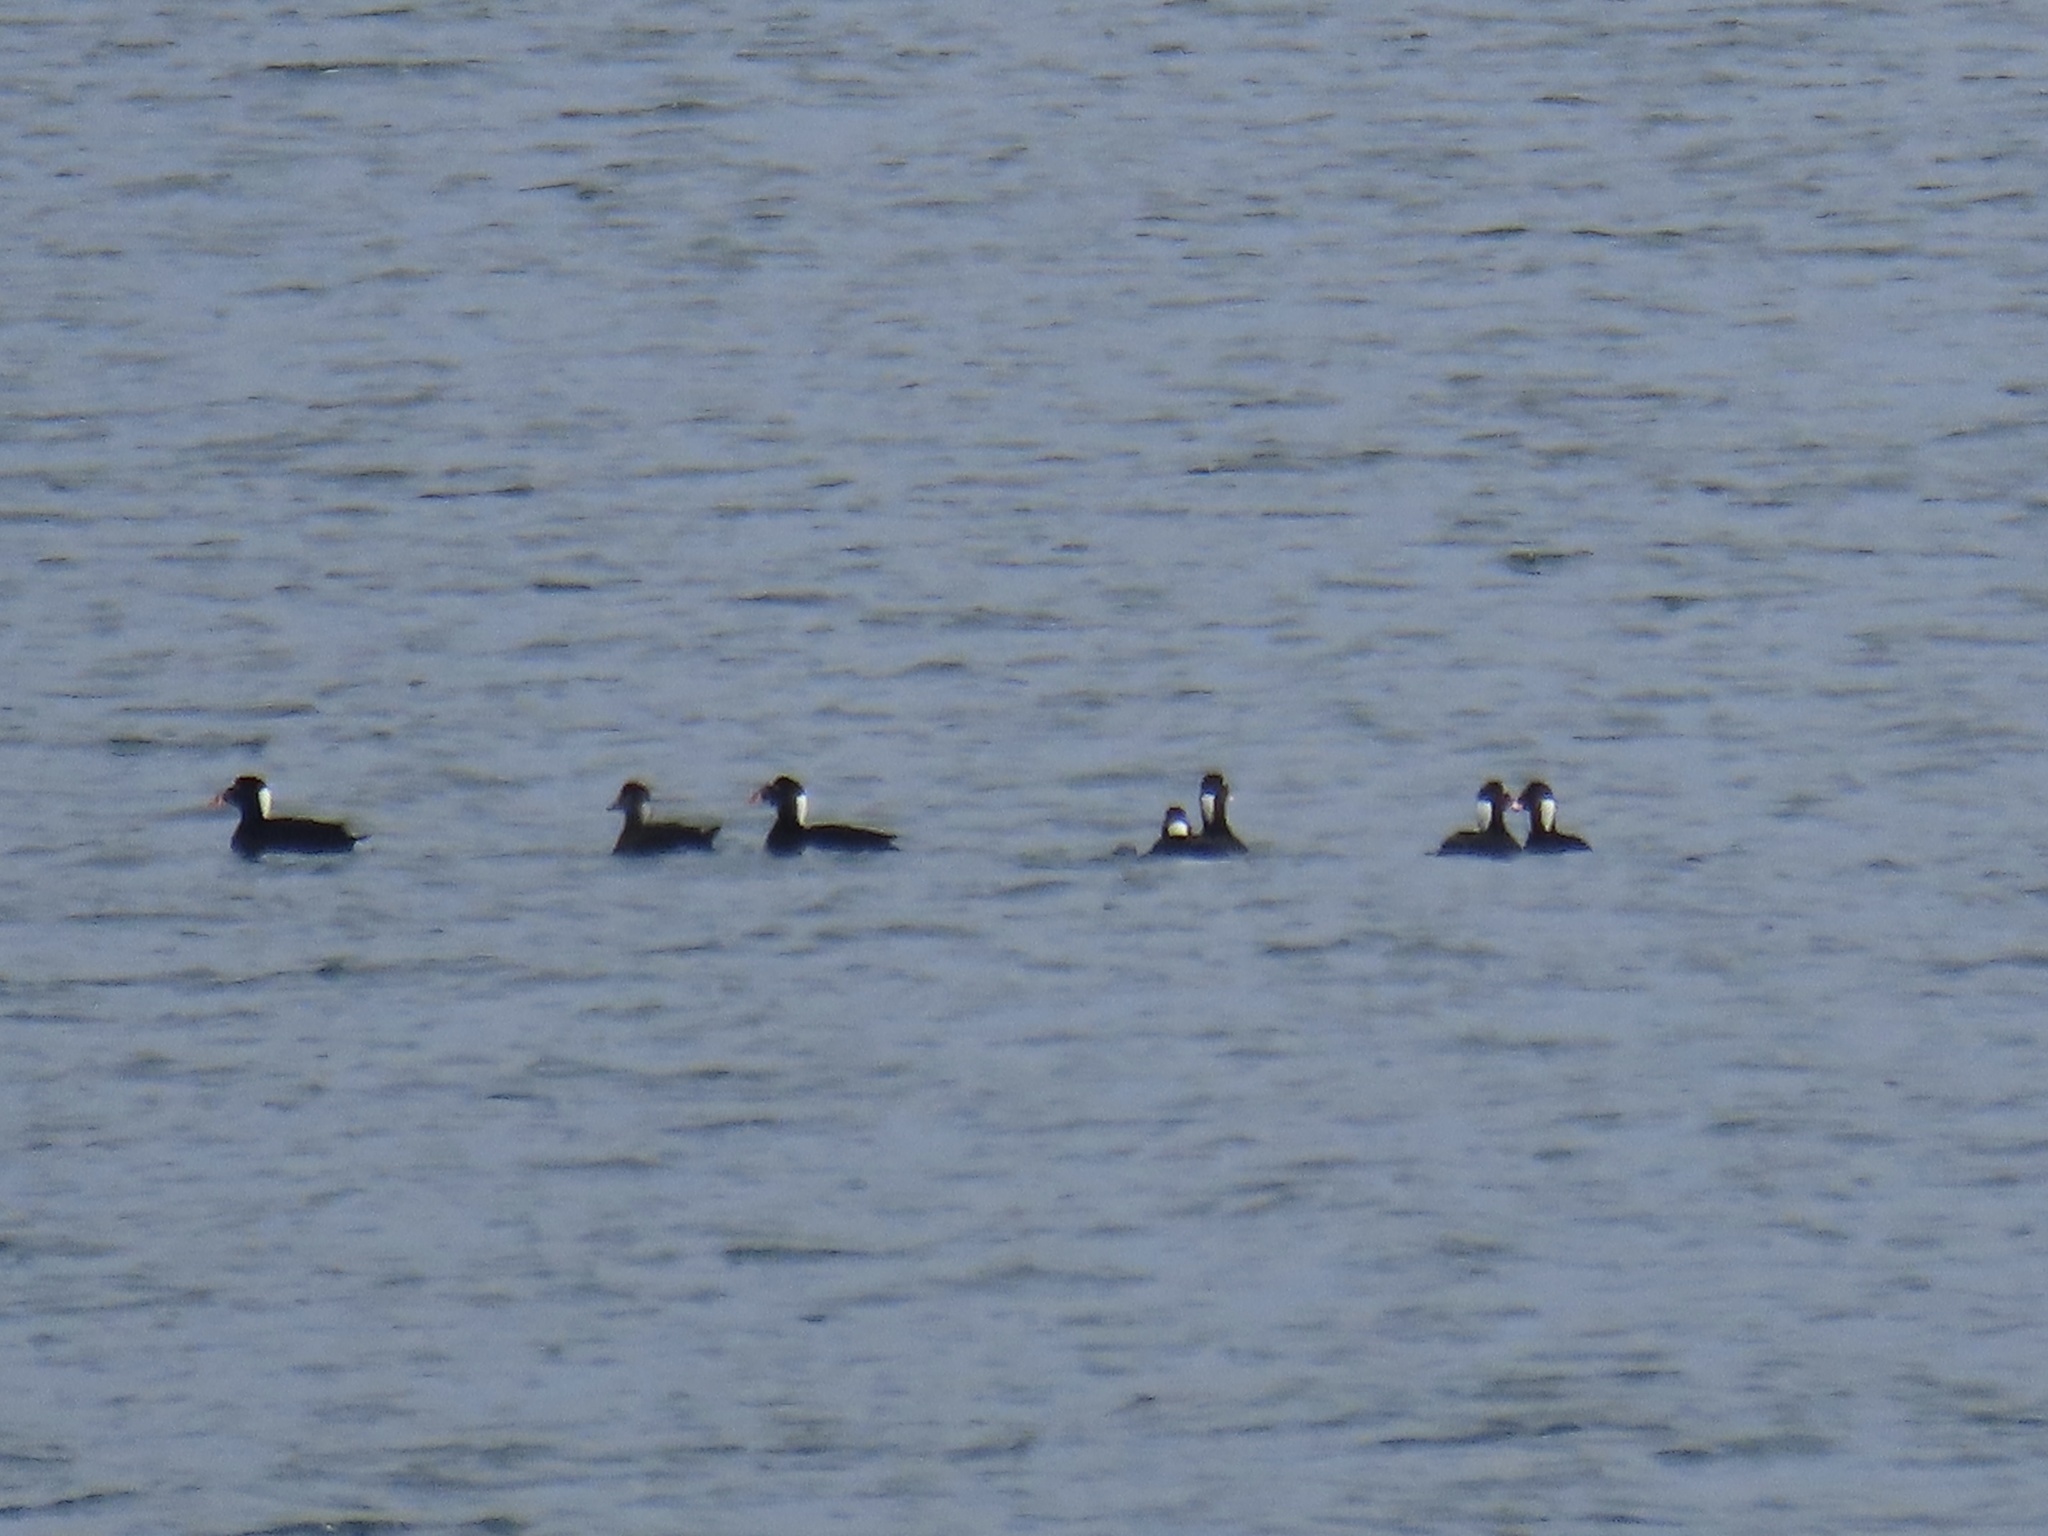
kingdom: Animalia
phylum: Chordata
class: Aves
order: Anseriformes
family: Anatidae
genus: Melanitta
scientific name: Melanitta perspicillata
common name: Surf scoter
